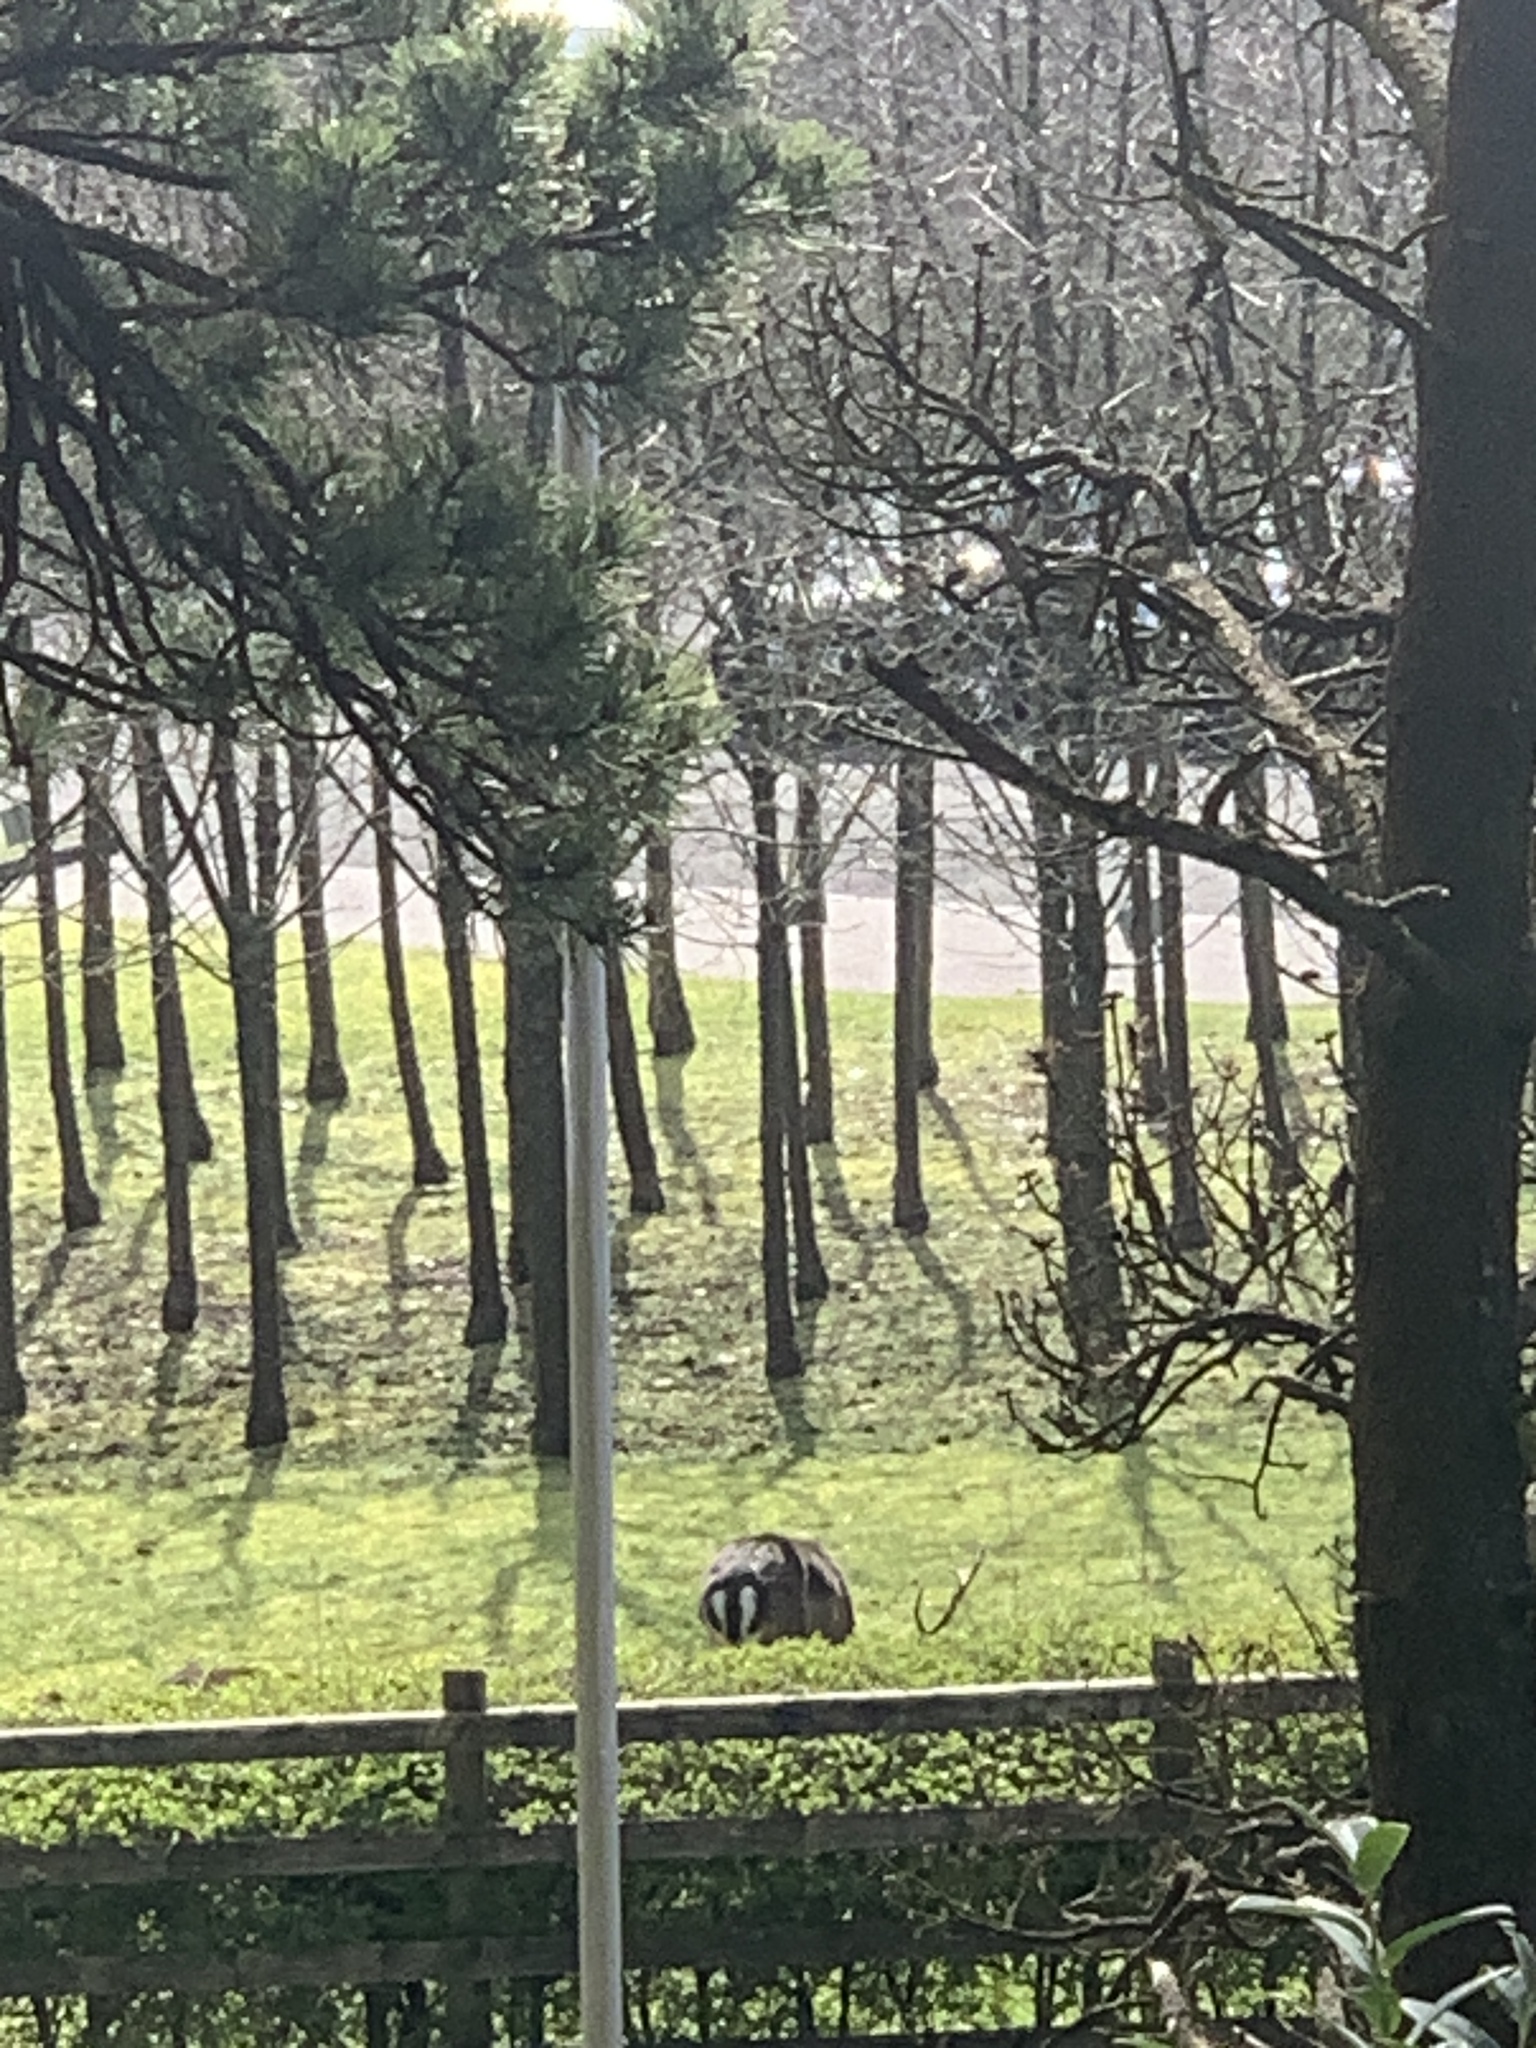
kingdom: Animalia
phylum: Chordata
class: Mammalia
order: Carnivora
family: Mustelidae
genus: Meles
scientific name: Meles meles
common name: Eurasian badger
